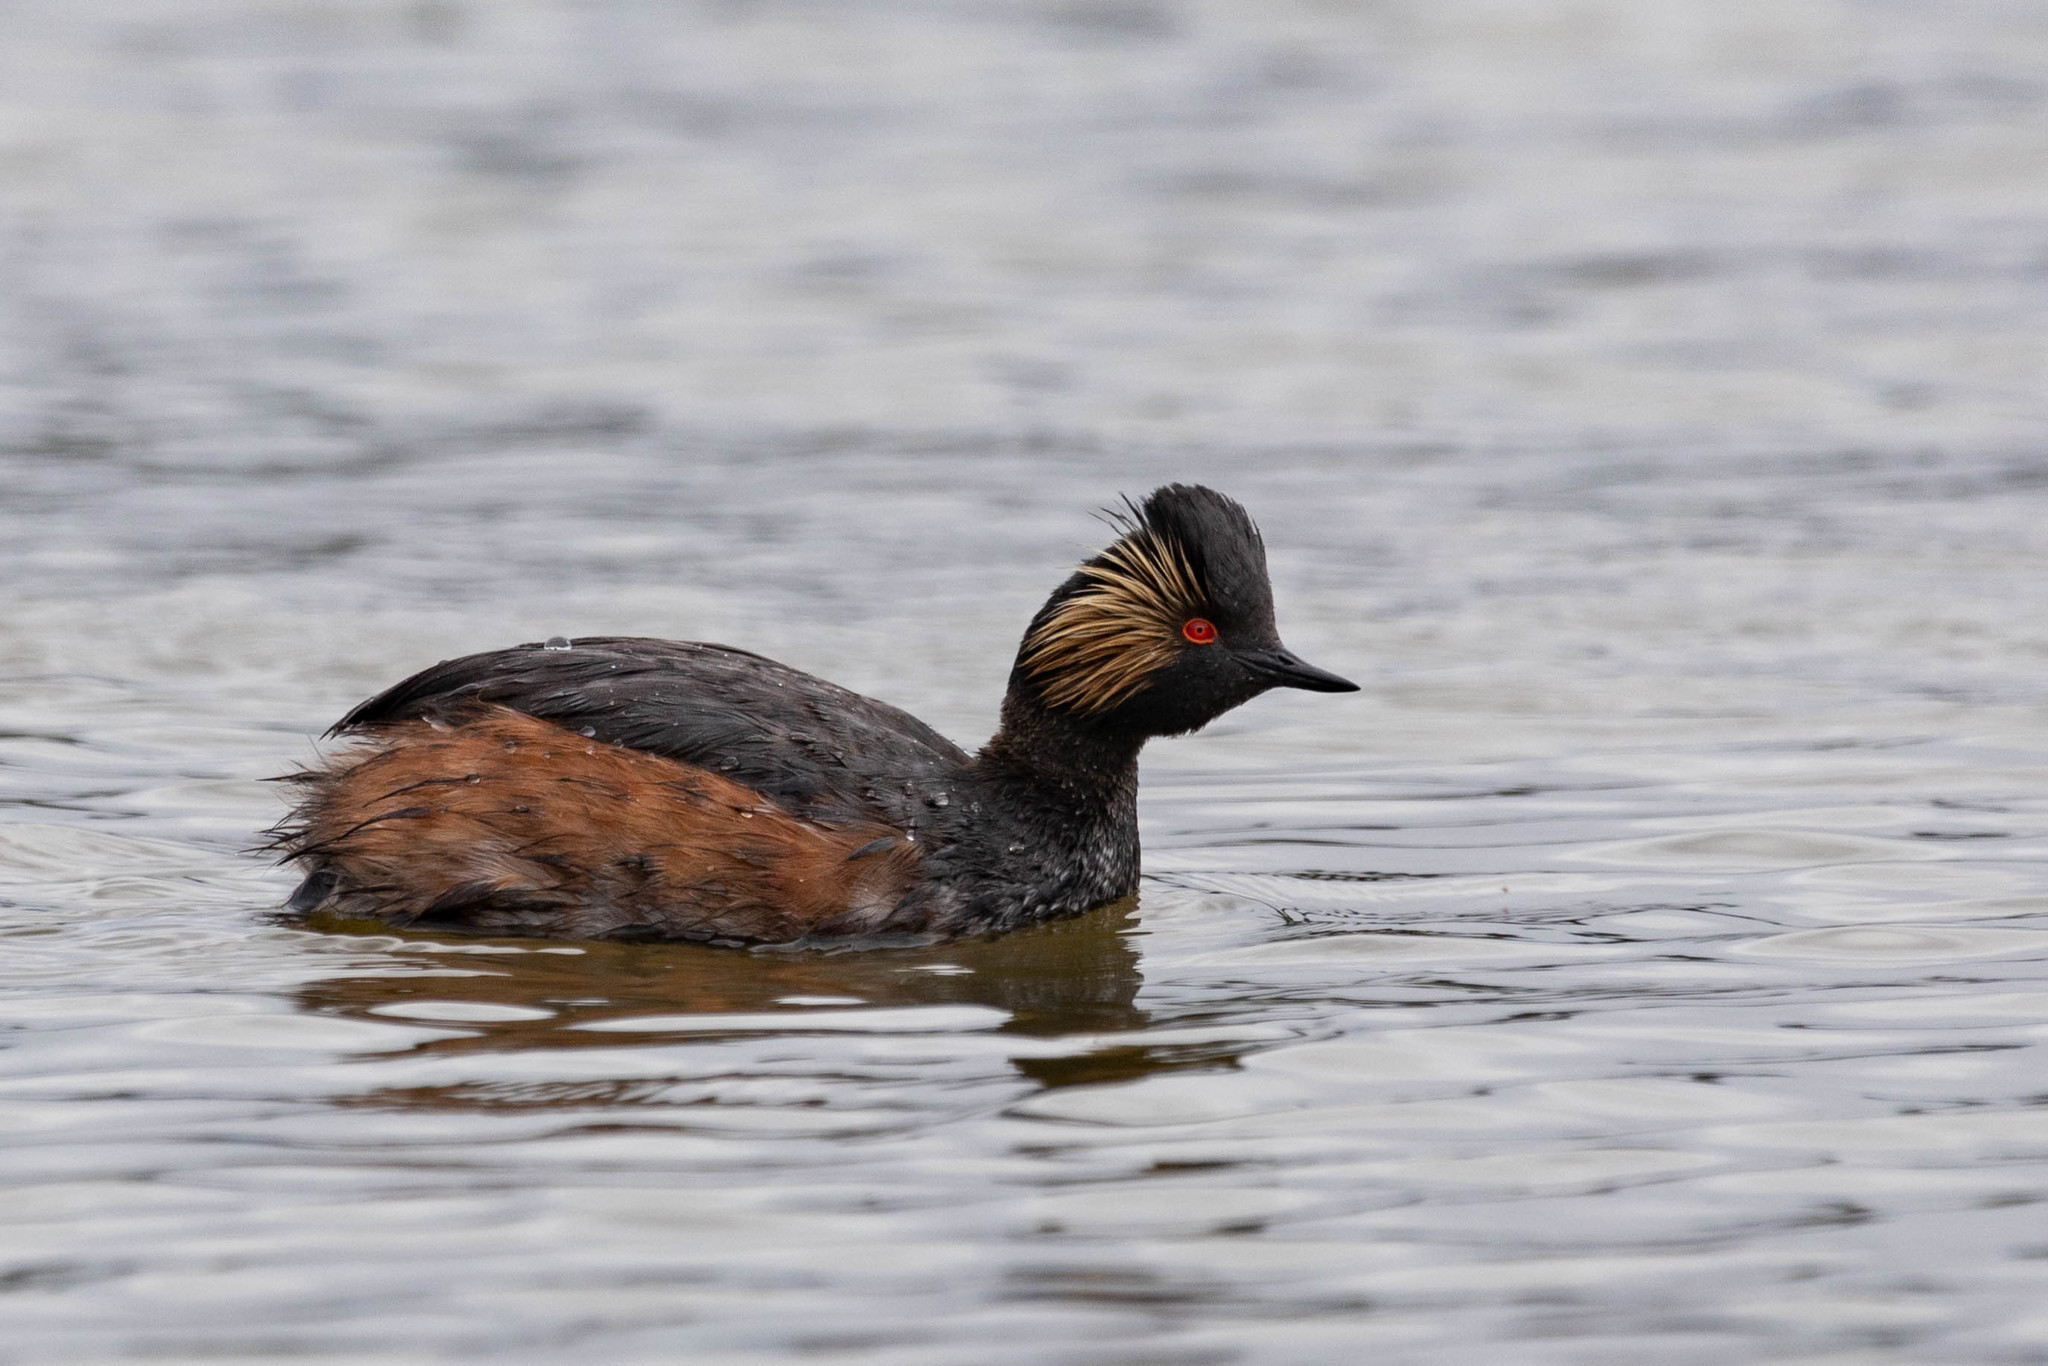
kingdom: Animalia
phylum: Chordata
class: Aves
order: Podicipediformes
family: Podicipedidae
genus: Podiceps
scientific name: Podiceps nigricollis
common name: Black-necked grebe
